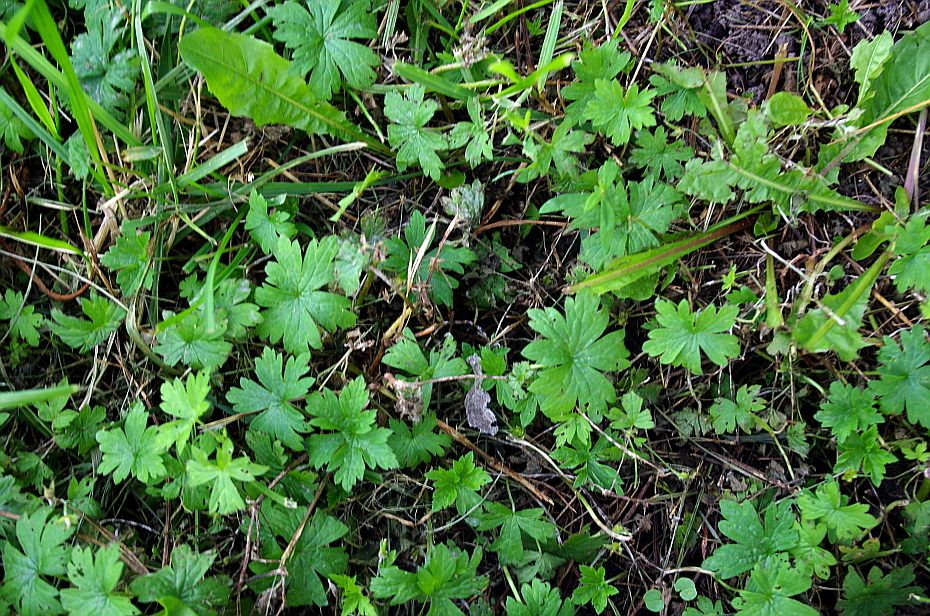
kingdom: Plantae
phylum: Tracheophyta
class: Magnoliopsida
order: Geraniales
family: Geraniaceae
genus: Geranium
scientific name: Geranium sibiricum
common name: Siberian crane's-bill
